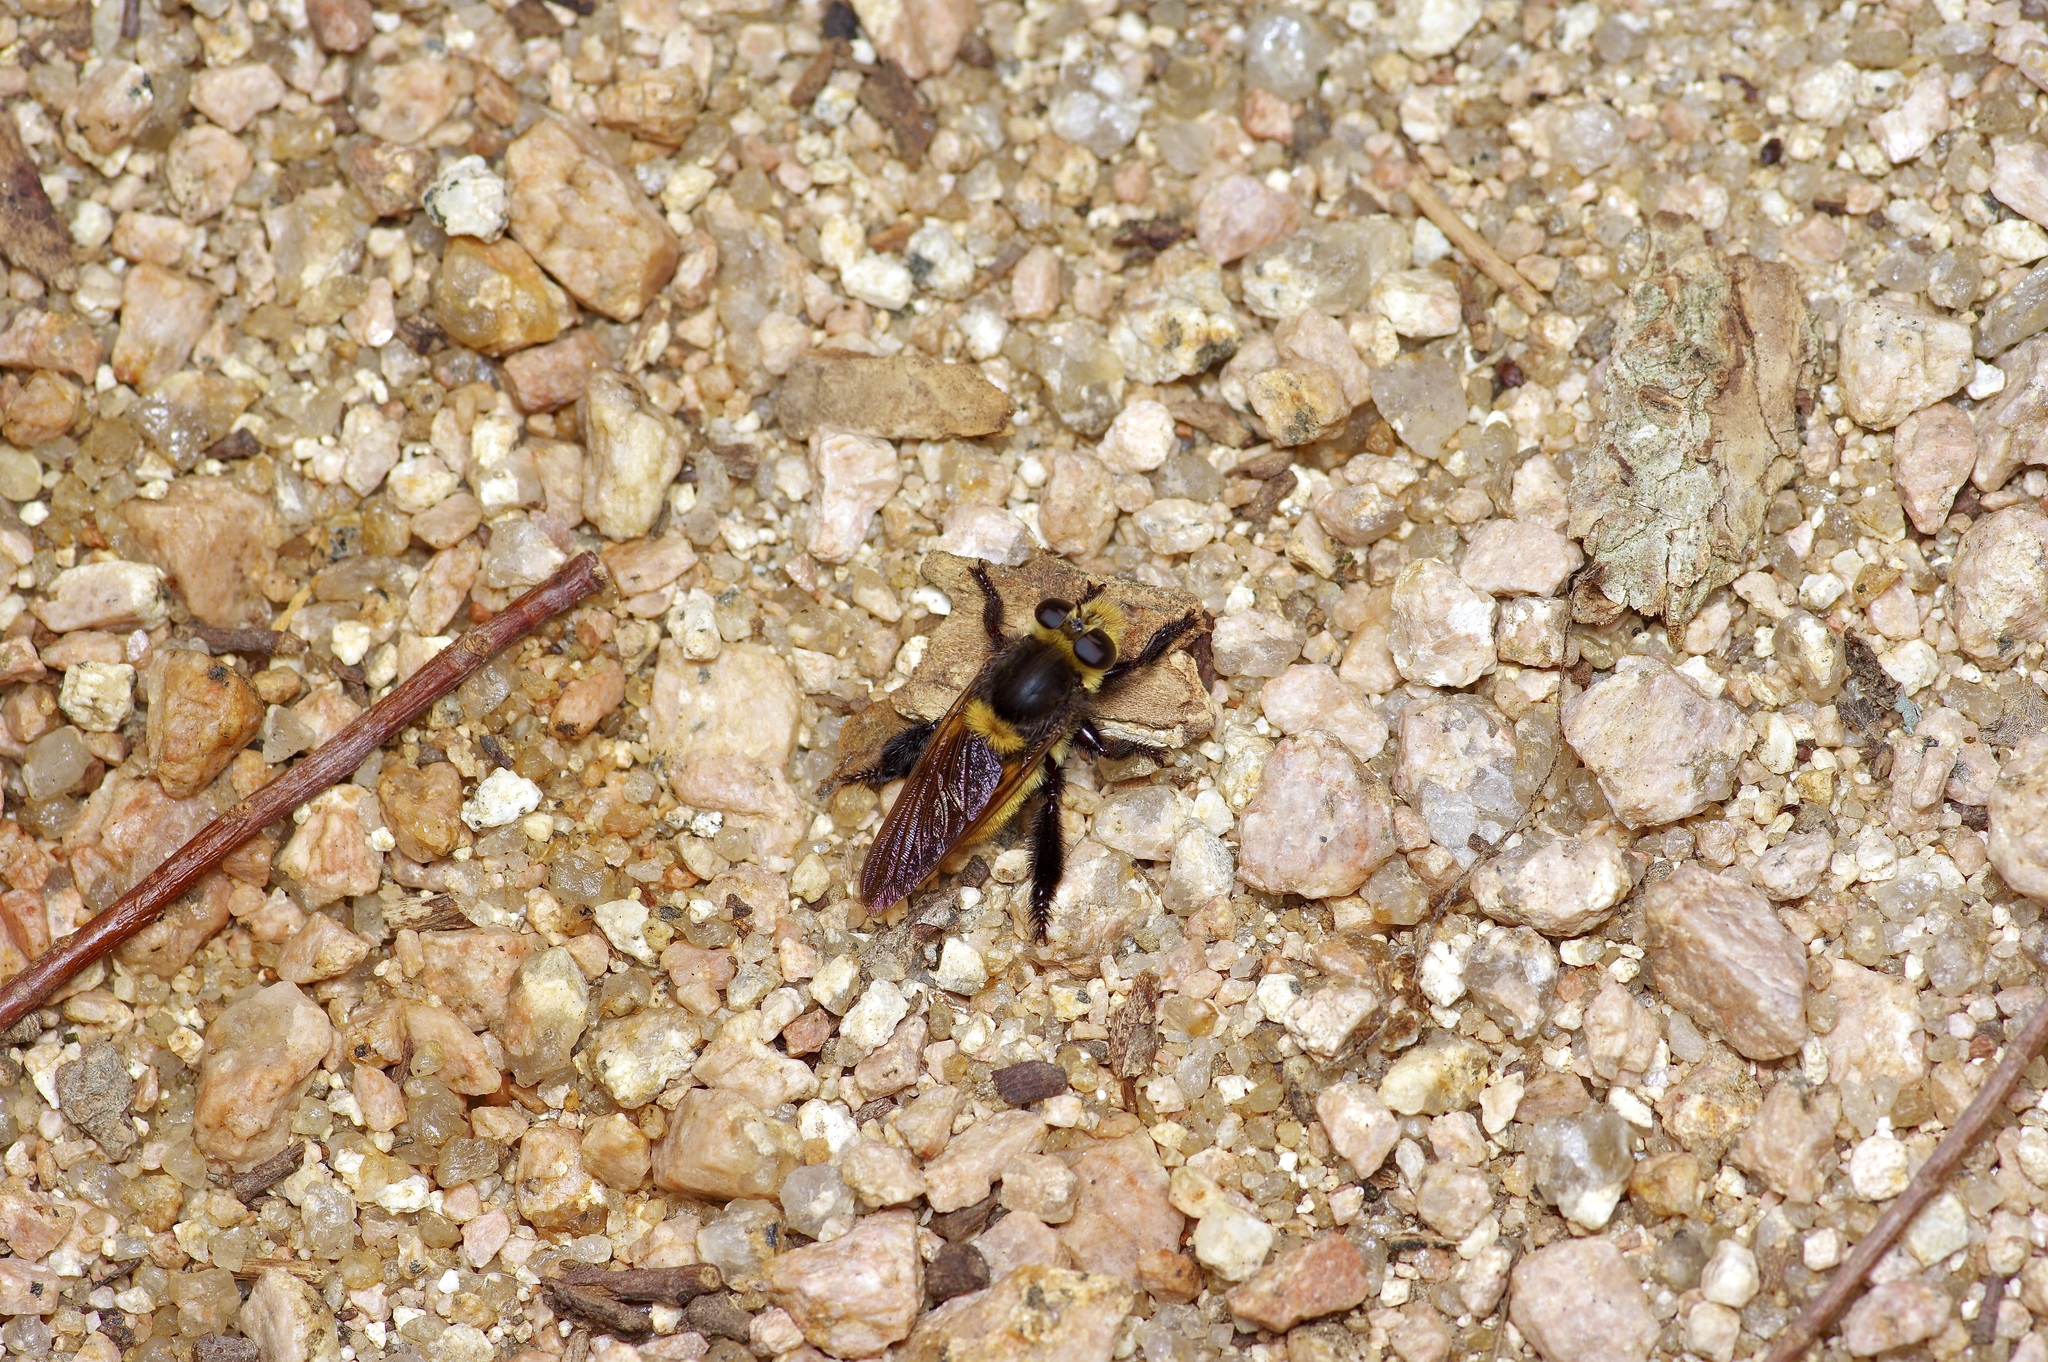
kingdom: Animalia
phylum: Arthropoda
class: Insecta
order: Diptera
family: Asilidae
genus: Mallophora
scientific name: Mallophora fautrix
